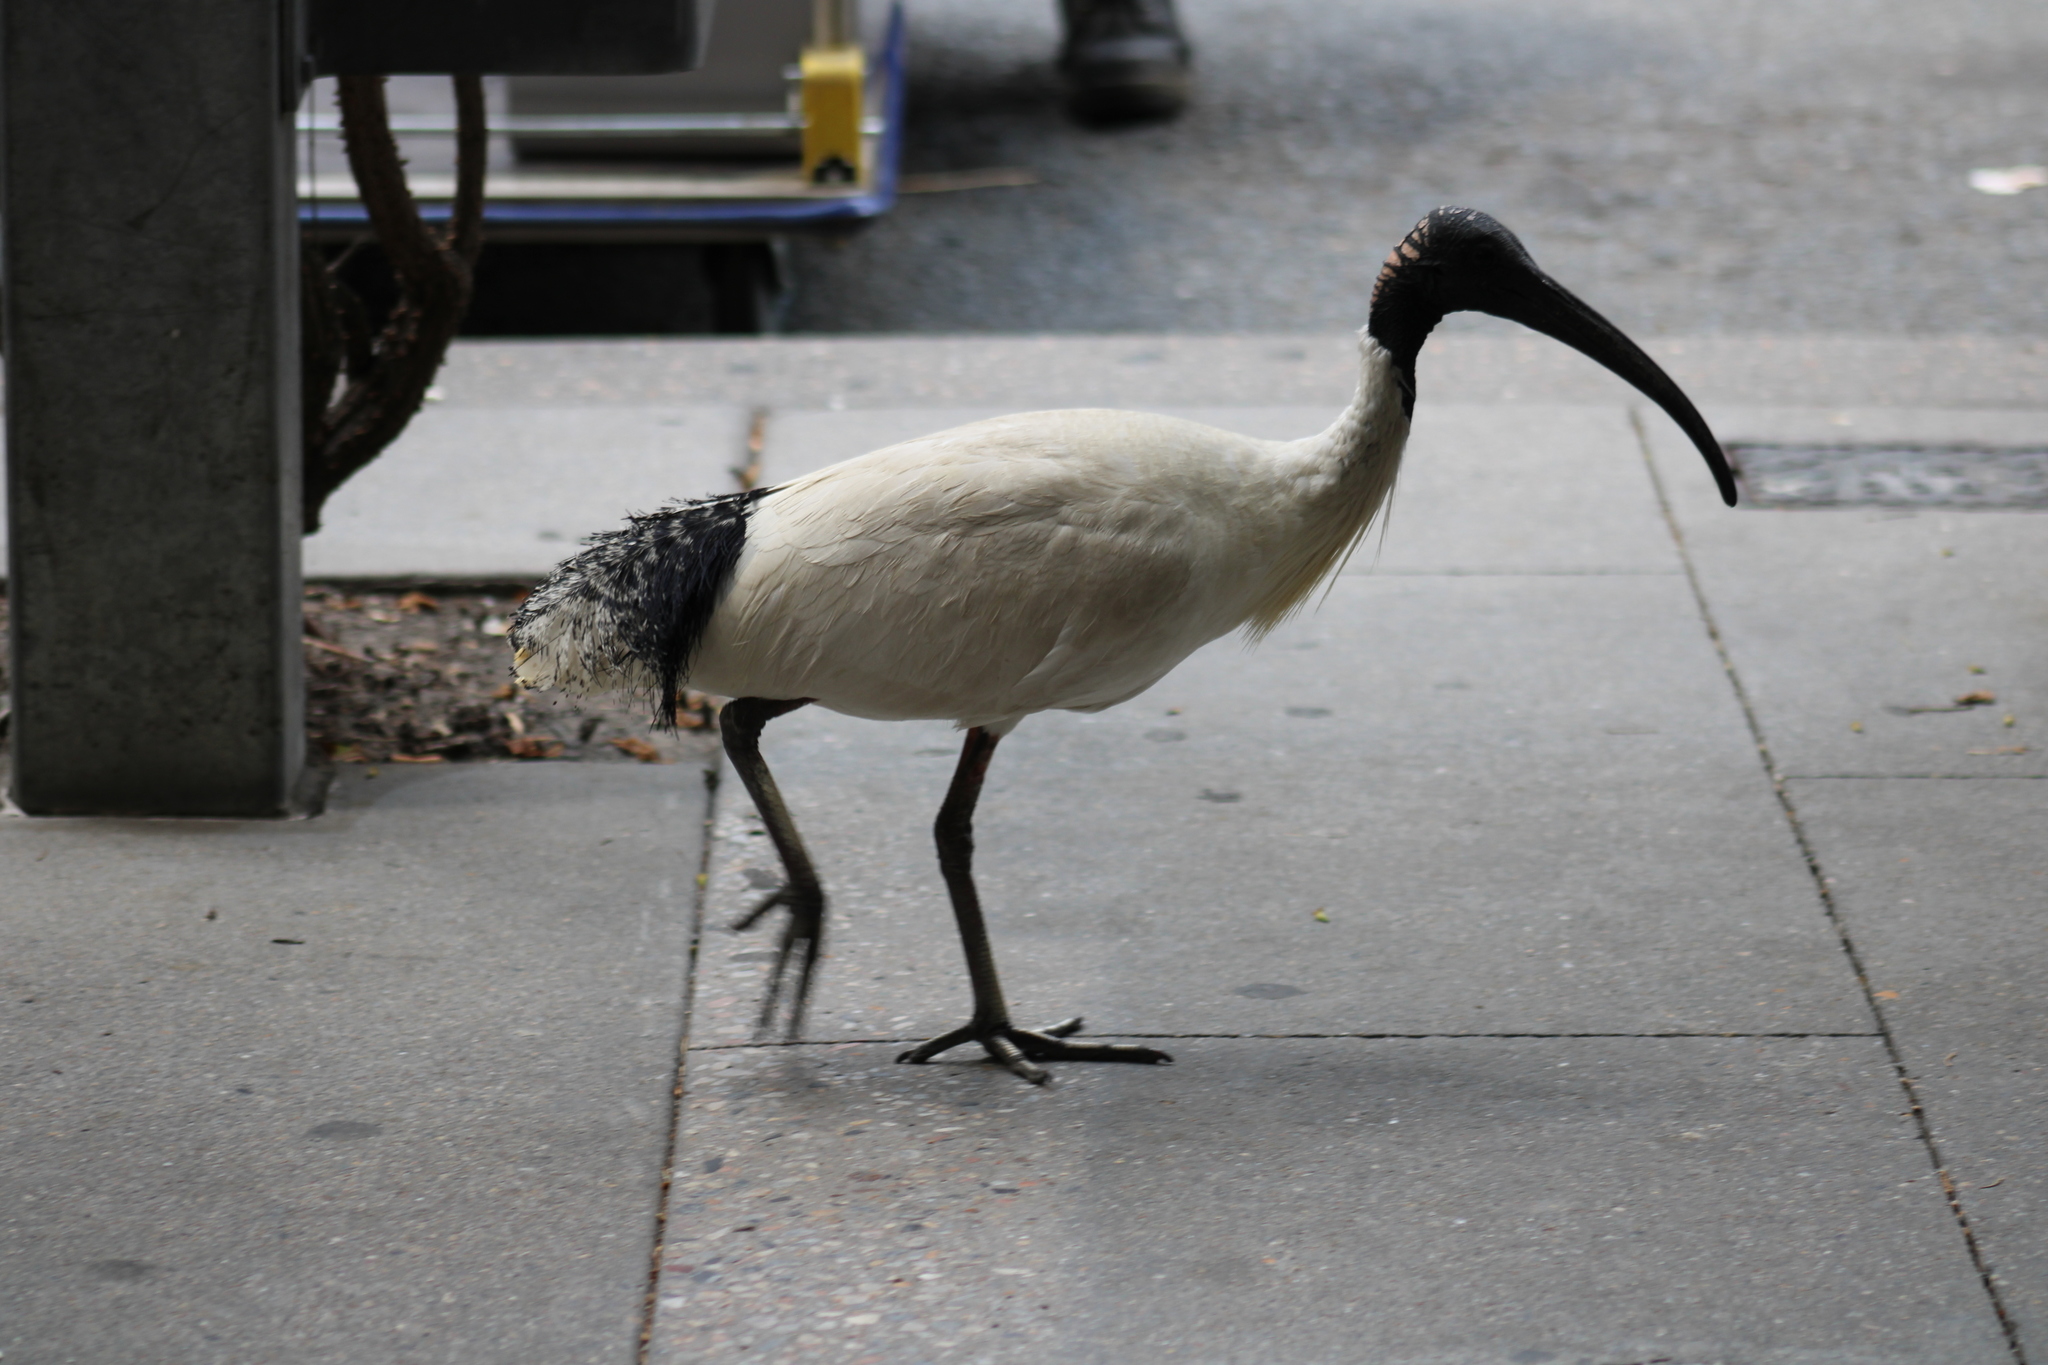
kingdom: Animalia
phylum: Chordata
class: Aves
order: Pelecaniformes
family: Threskiornithidae
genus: Threskiornis
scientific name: Threskiornis molucca
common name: Australian white ibis
